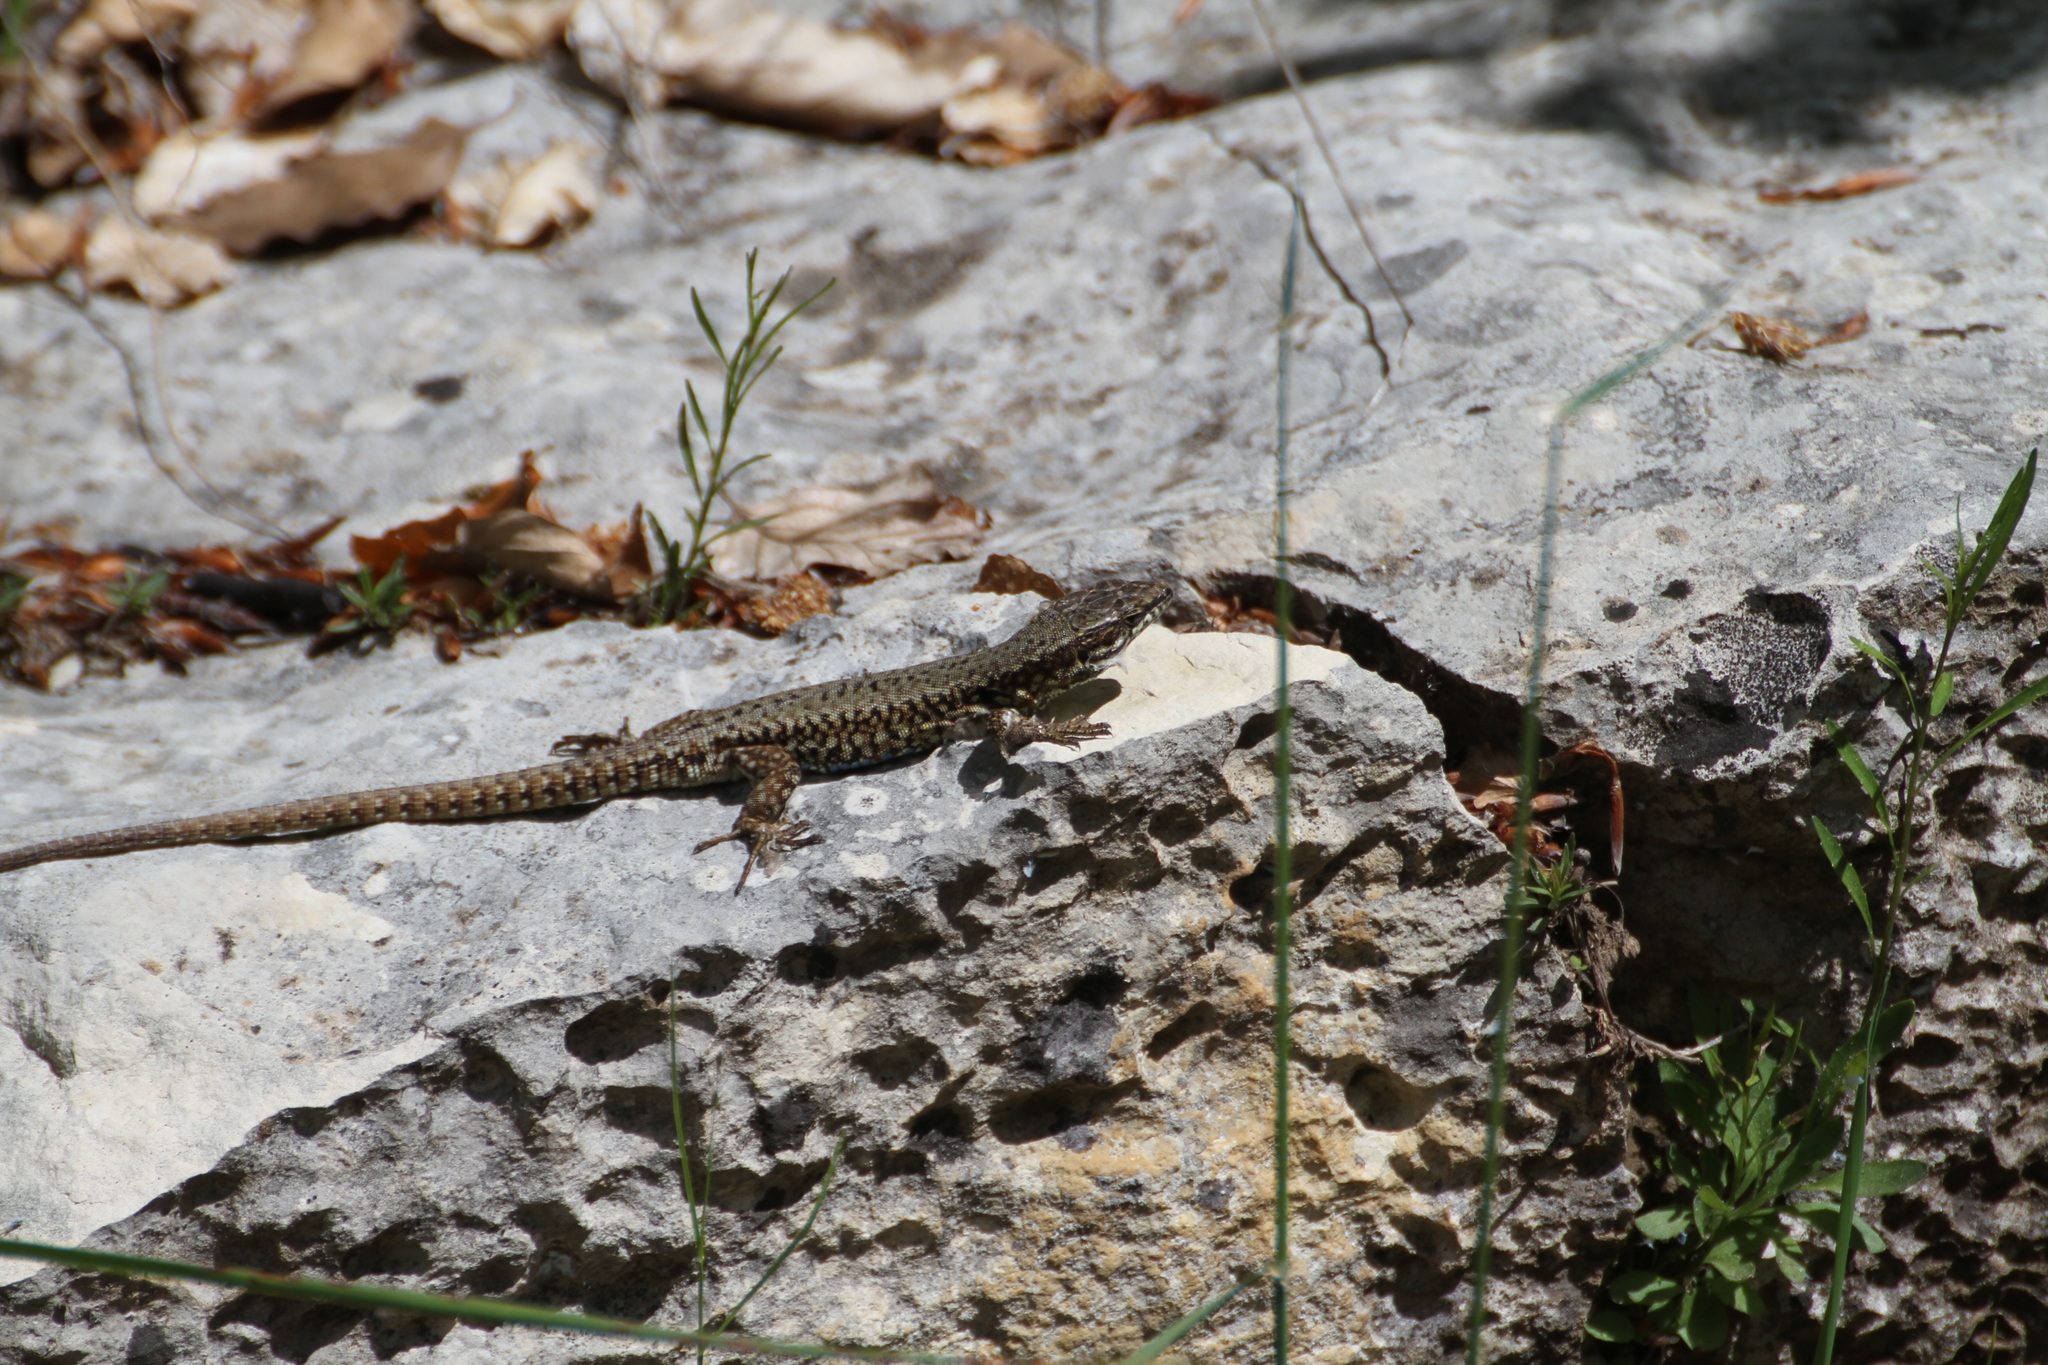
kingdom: Animalia
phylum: Chordata
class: Squamata
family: Lacertidae
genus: Podarcis
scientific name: Podarcis muralis
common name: Common wall lizard
